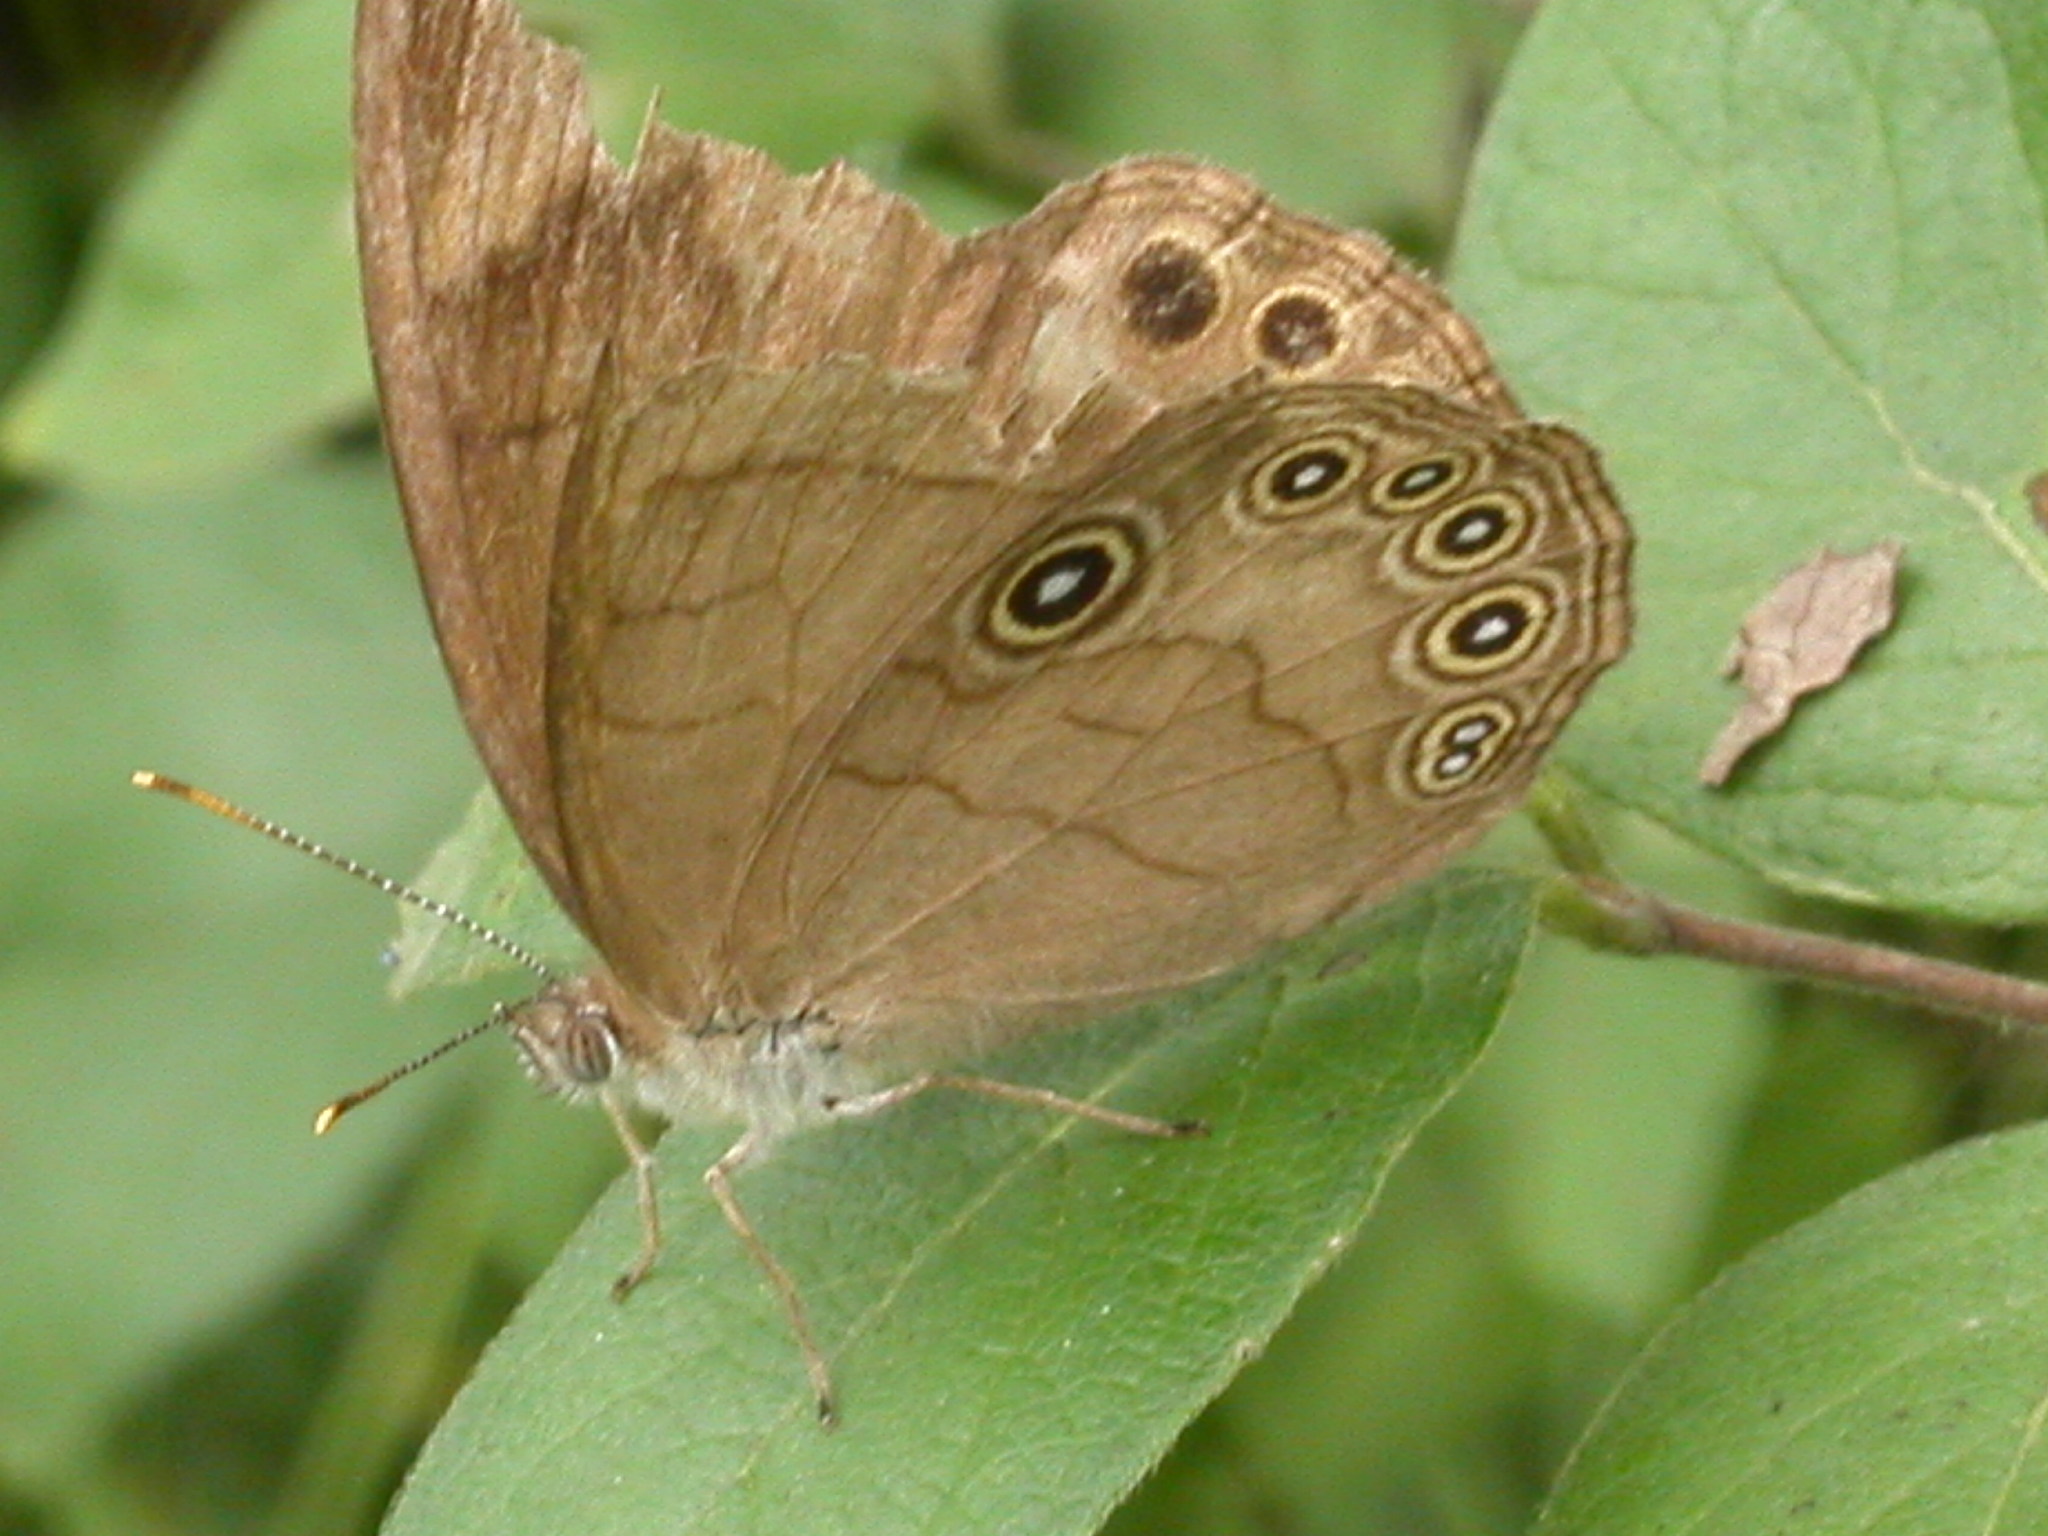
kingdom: Animalia
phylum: Arthropoda
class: Insecta
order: Lepidoptera
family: Nymphalidae
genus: Lethe
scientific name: Lethe eurydice
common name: Eyed brown
